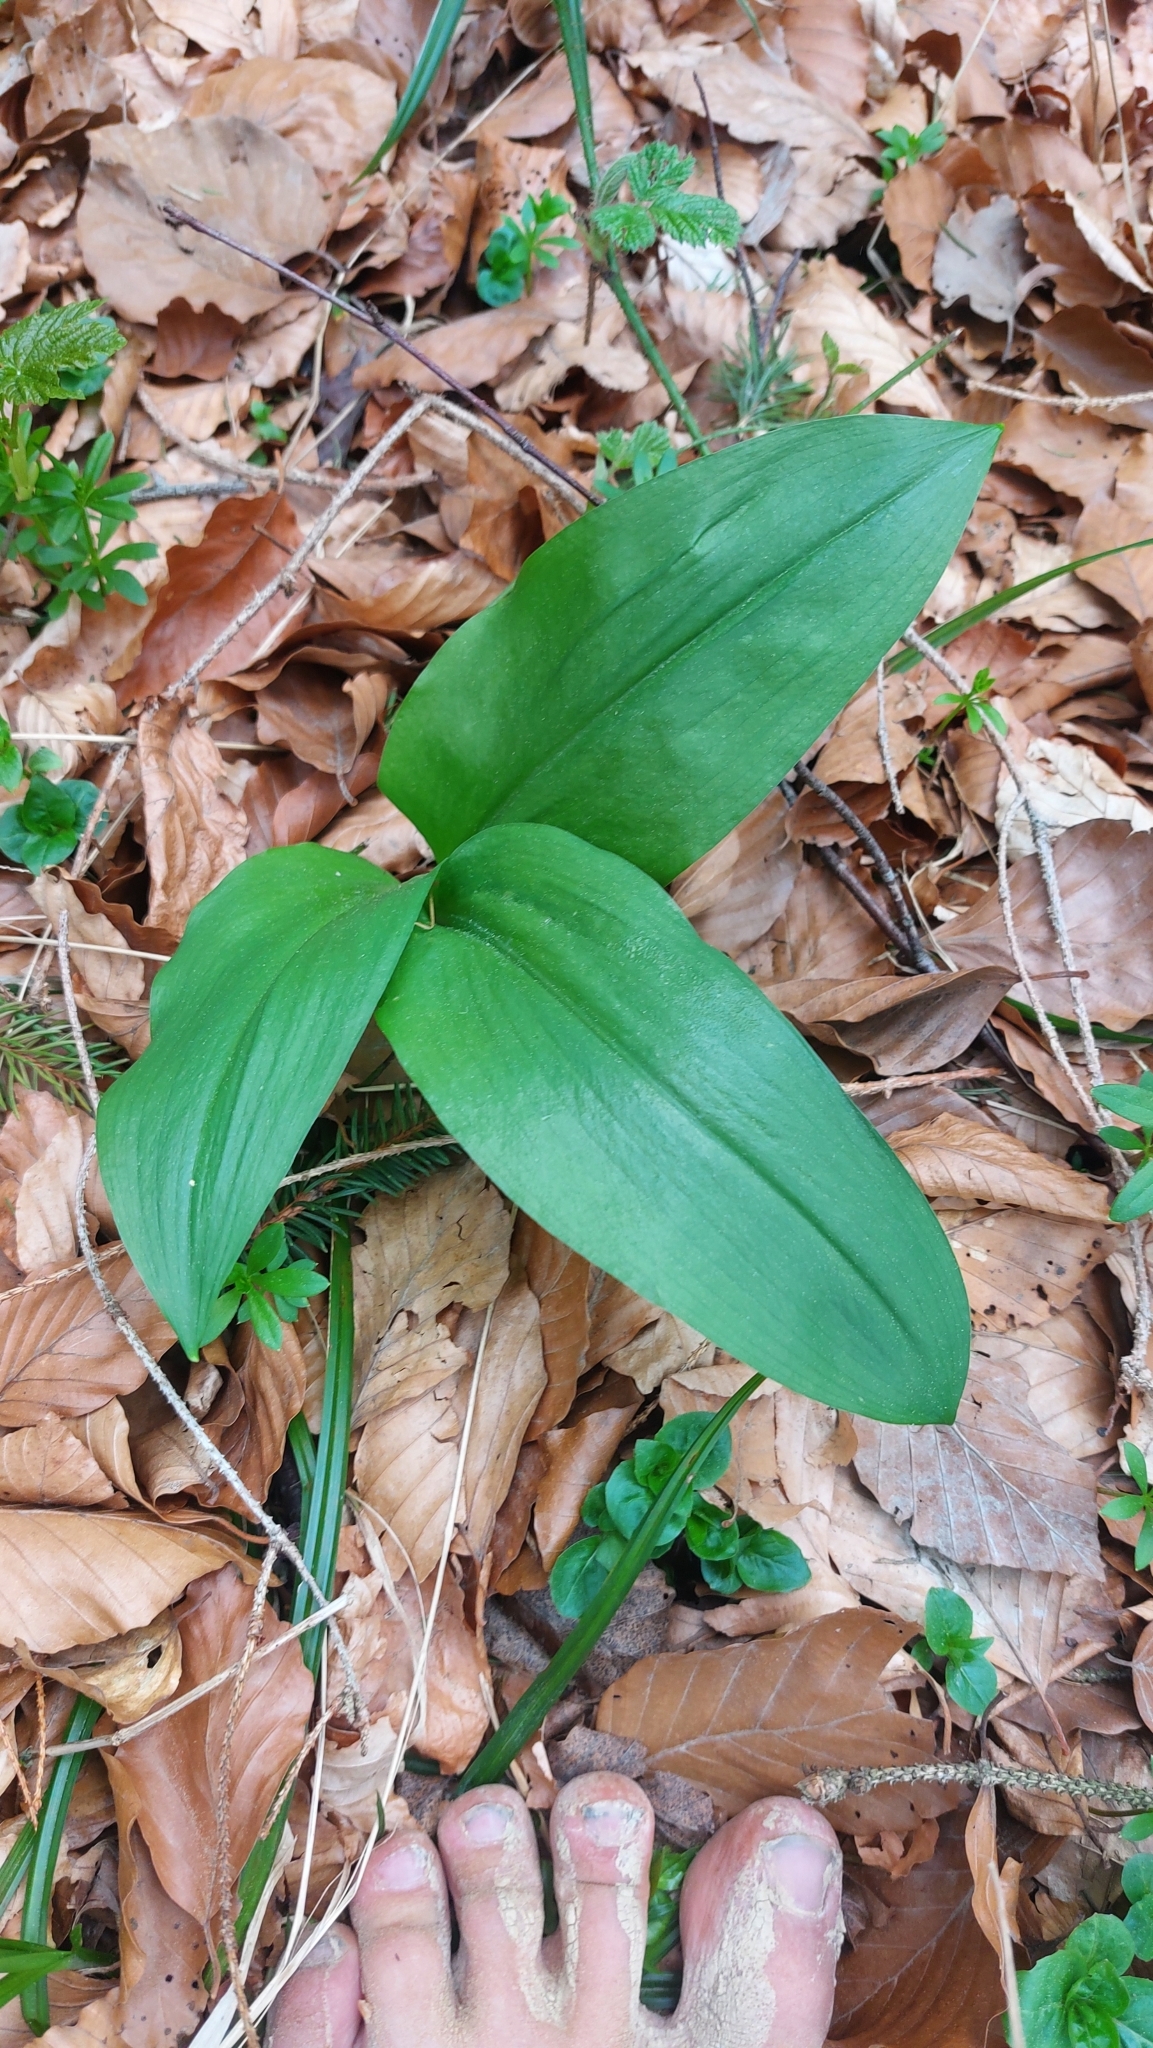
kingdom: Plantae
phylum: Tracheophyta
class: Liliopsida
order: Asparagales
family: Amaryllidaceae
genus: Allium
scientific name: Allium ursinum
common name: Ramsons
